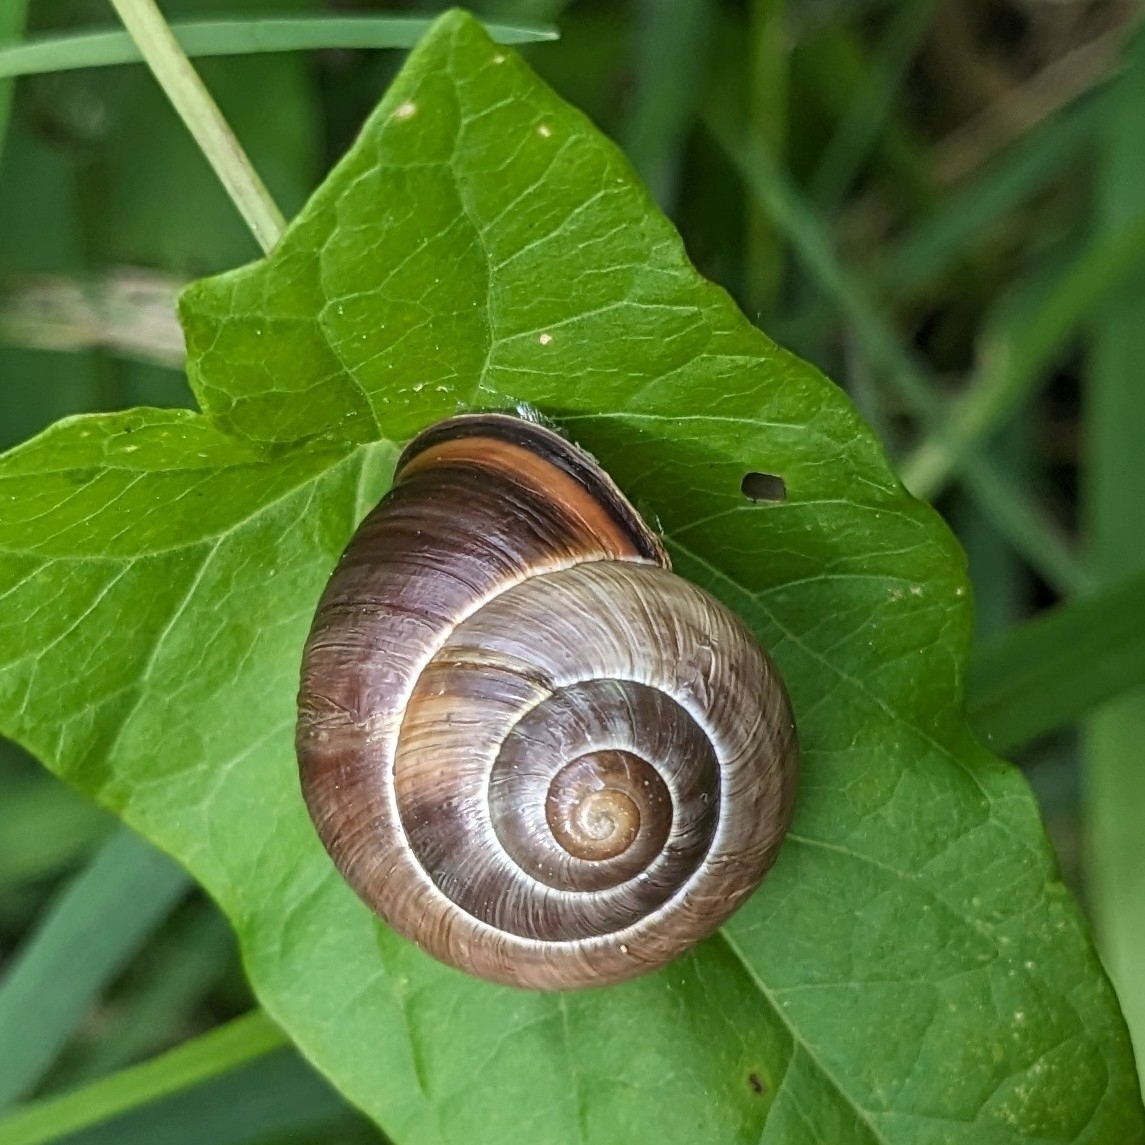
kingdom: Animalia
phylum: Mollusca
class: Gastropoda
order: Stylommatophora
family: Helicidae
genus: Cepaea
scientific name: Cepaea nemoralis
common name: Grovesnail
